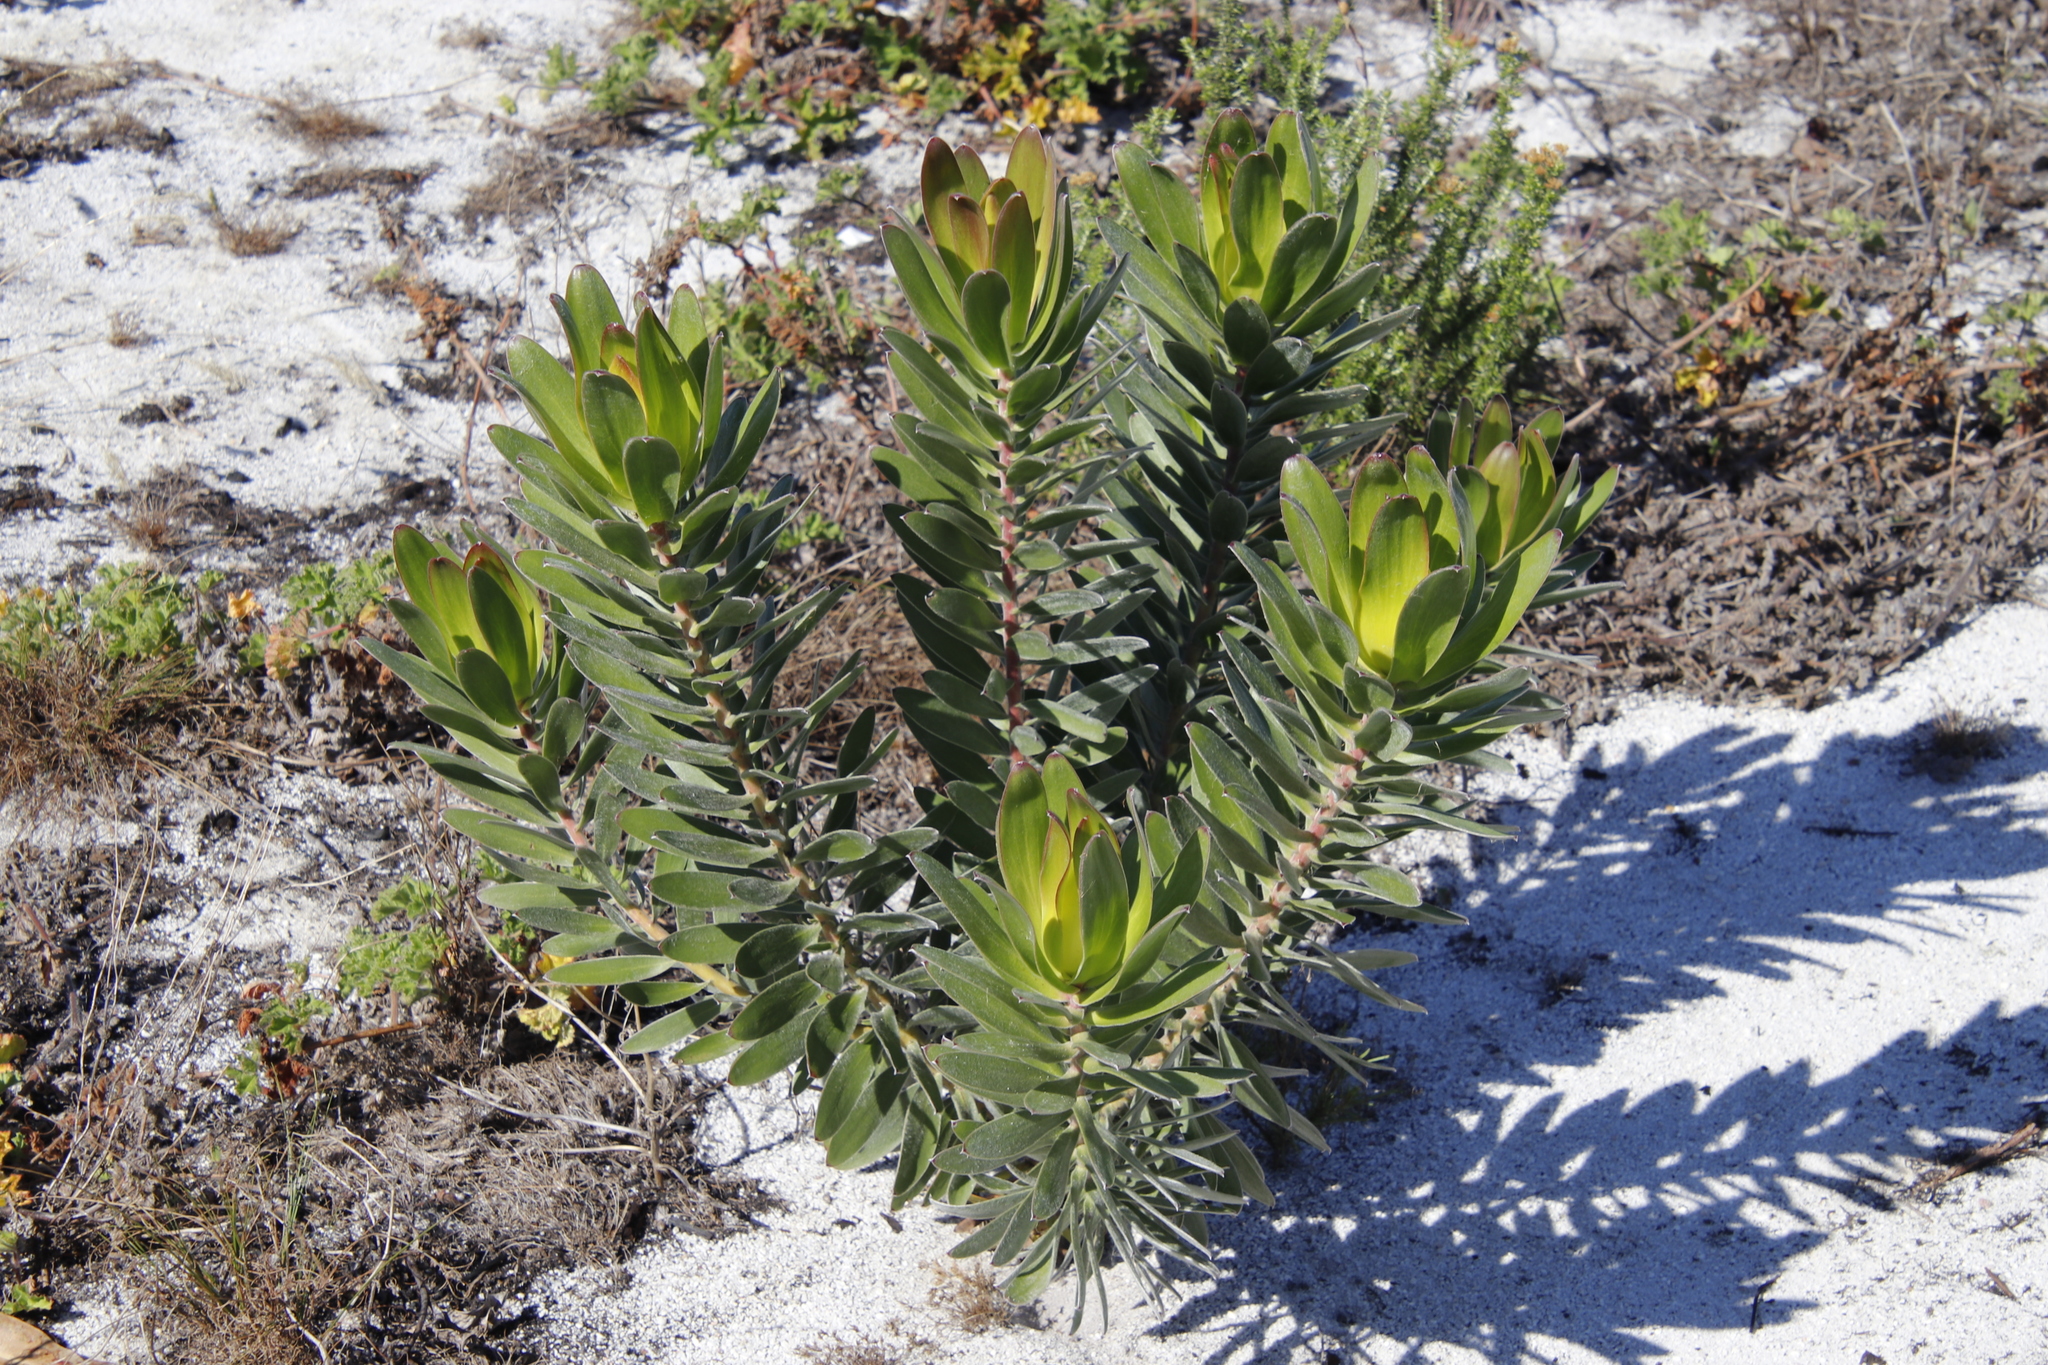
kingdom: Plantae
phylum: Tracheophyta
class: Magnoliopsida
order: Proteales
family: Proteaceae
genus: Leucadendron
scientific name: Leucadendron laureolum
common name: Golden sunshinebush
